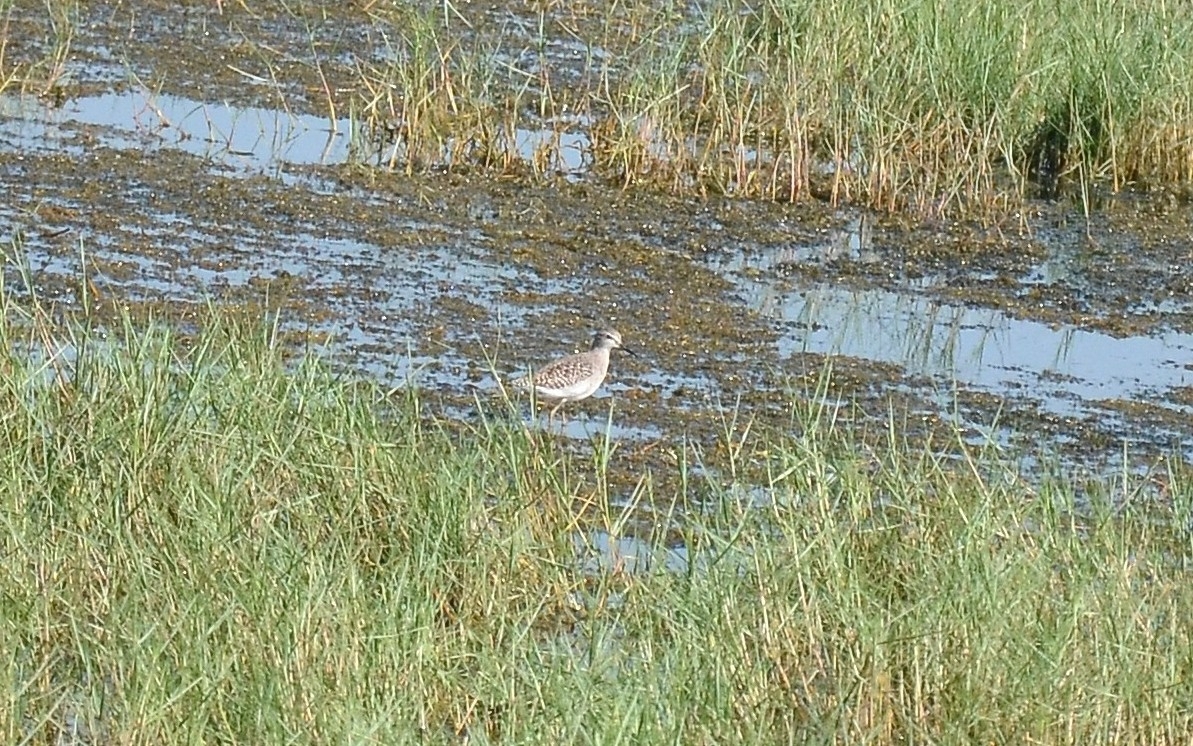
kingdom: Animalia
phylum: Chordata
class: Aves
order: Charadriiformes
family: Scolopacidae
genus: Tringa
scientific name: Tringa glareola
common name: Wood sandpiper
